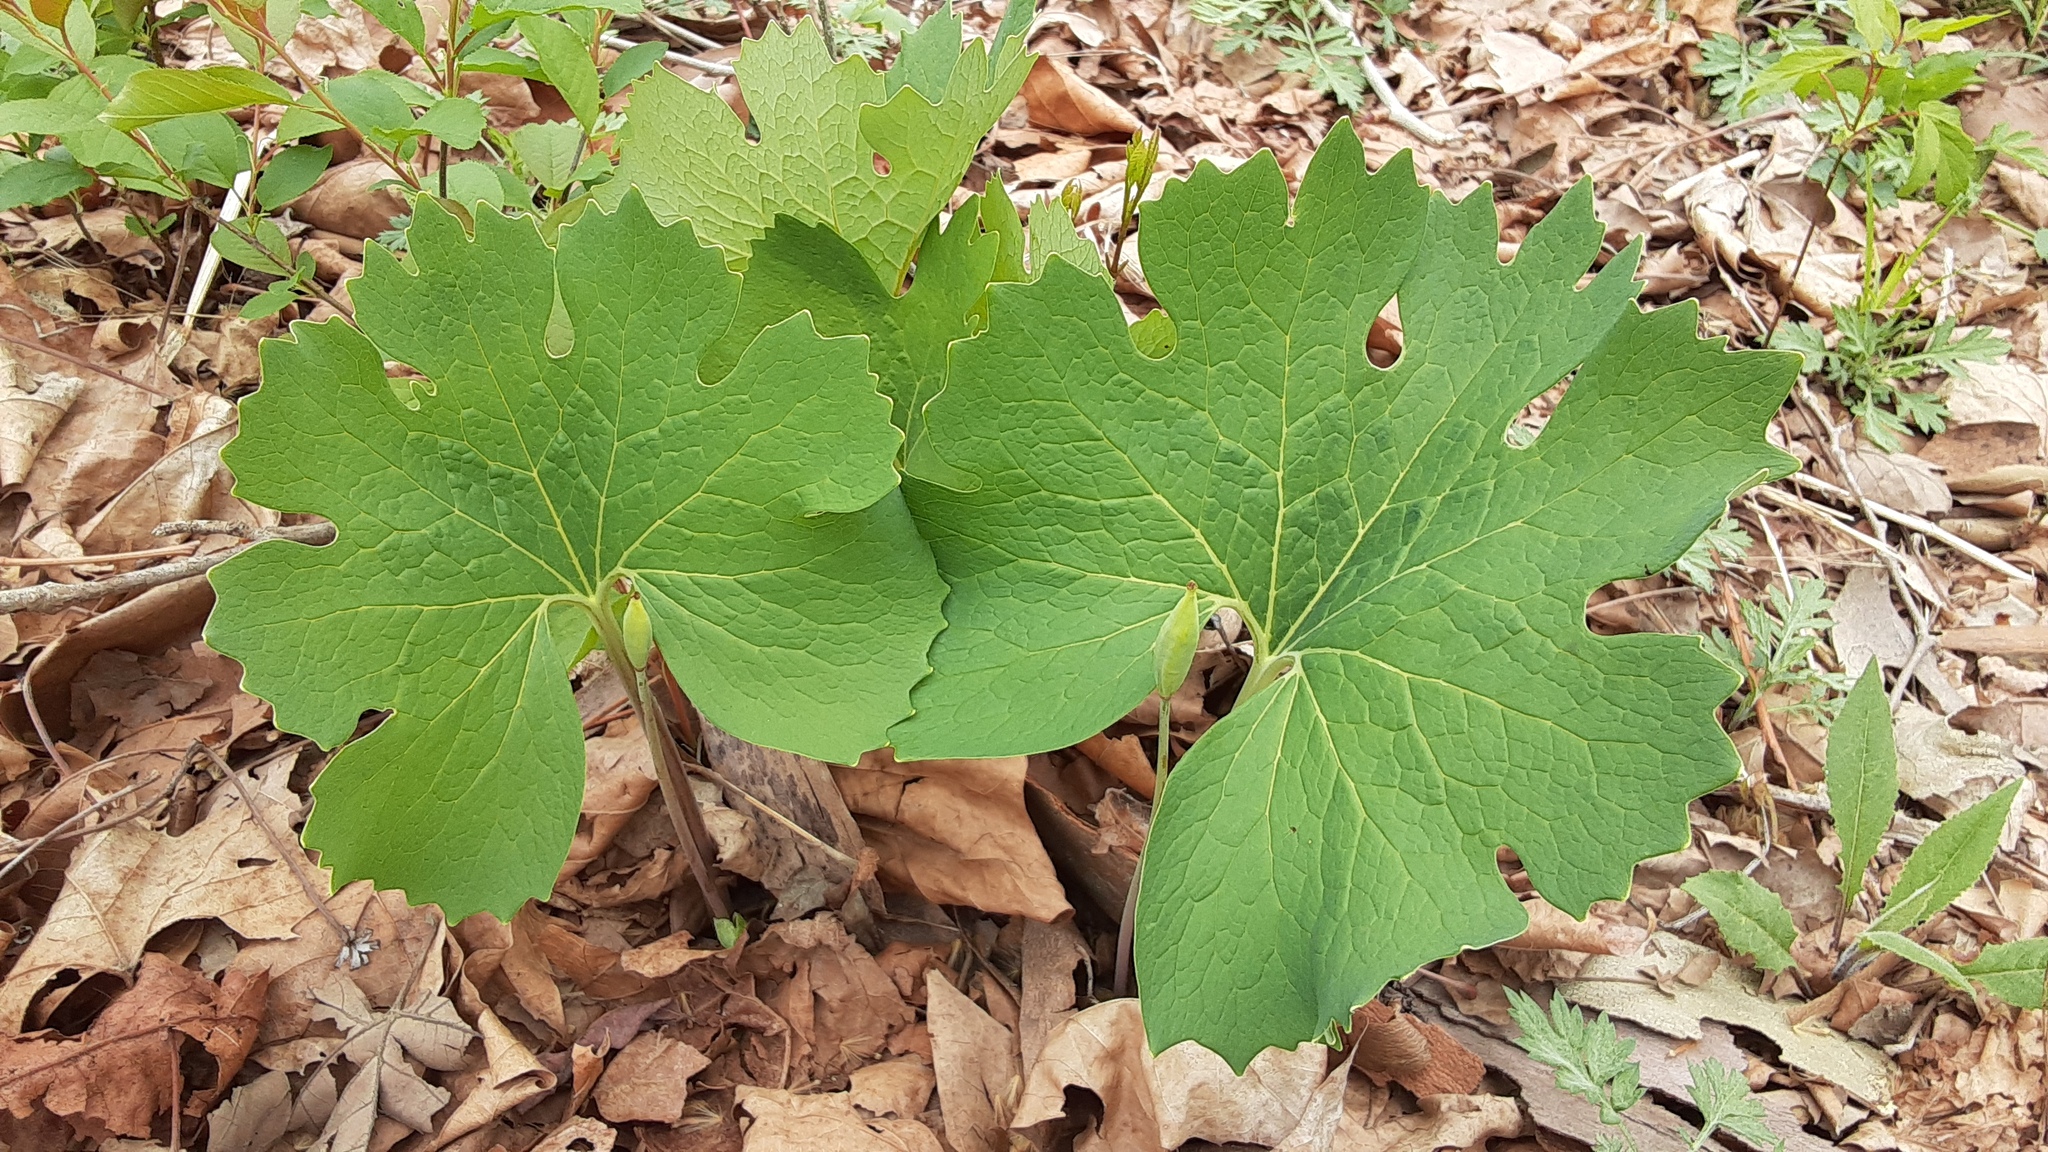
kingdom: Plantae
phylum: Tracheophyta
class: Magnoliopsida
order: Ranunculales
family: Papaveraceae
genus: Sanguinaria
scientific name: Sanguinaria canadensis
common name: Bloodroot
